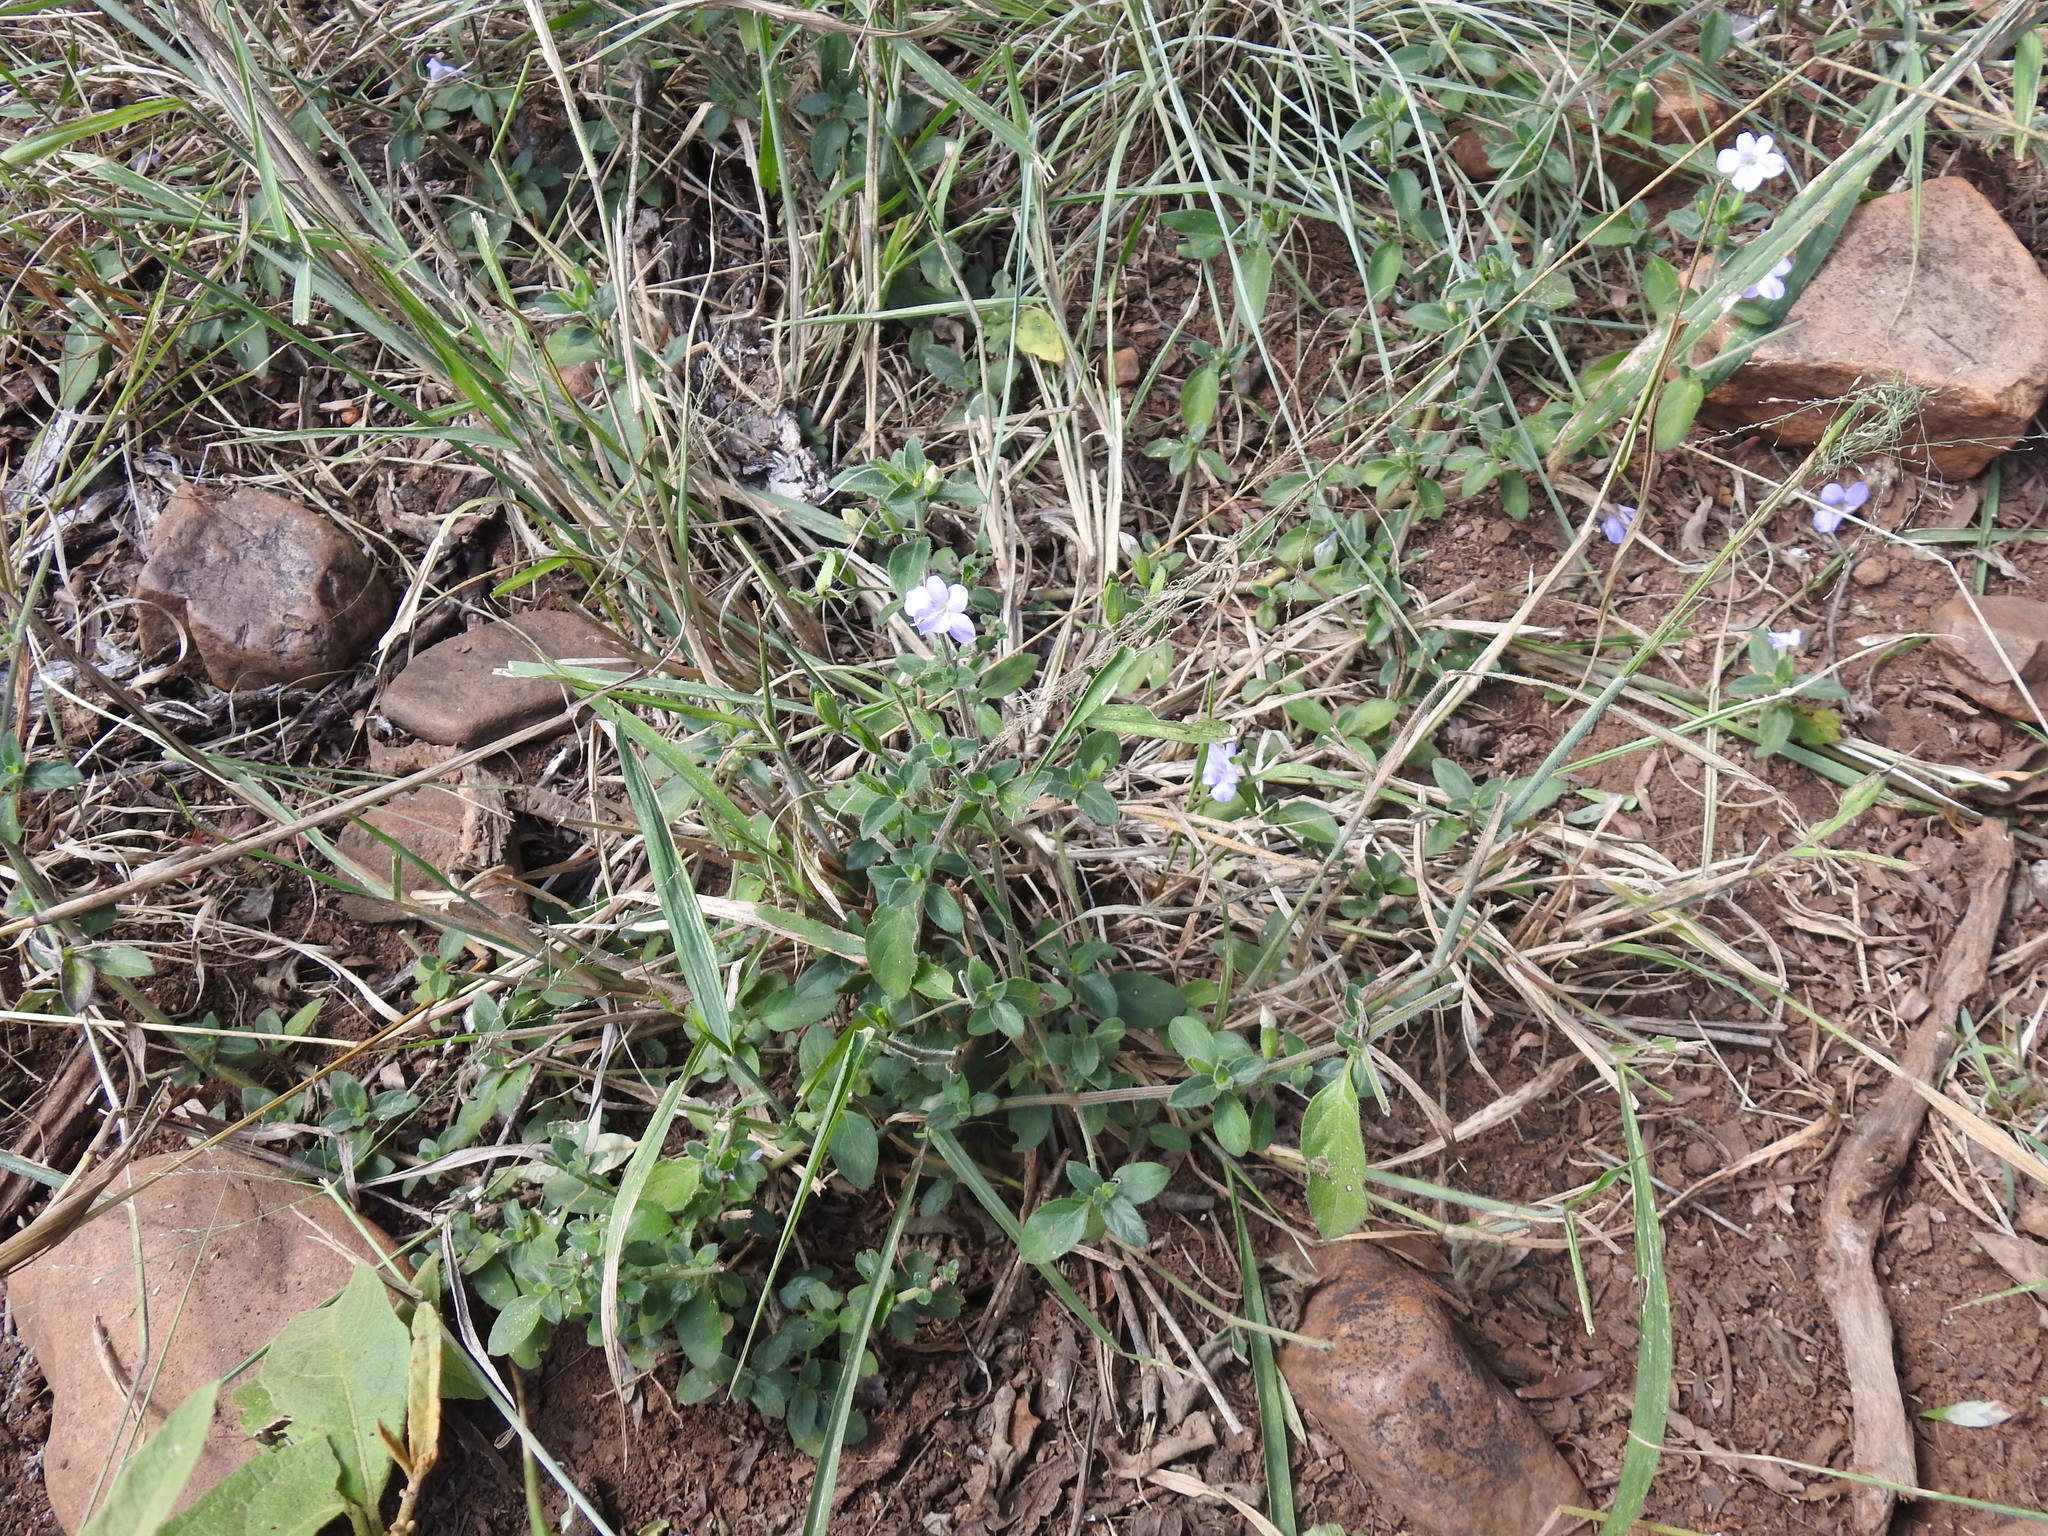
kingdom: Plantae
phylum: Tracheophyta
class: Magnoliopsida
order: Lamiales
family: Acanthaceae
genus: Barleria
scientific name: Barleria obtusa
